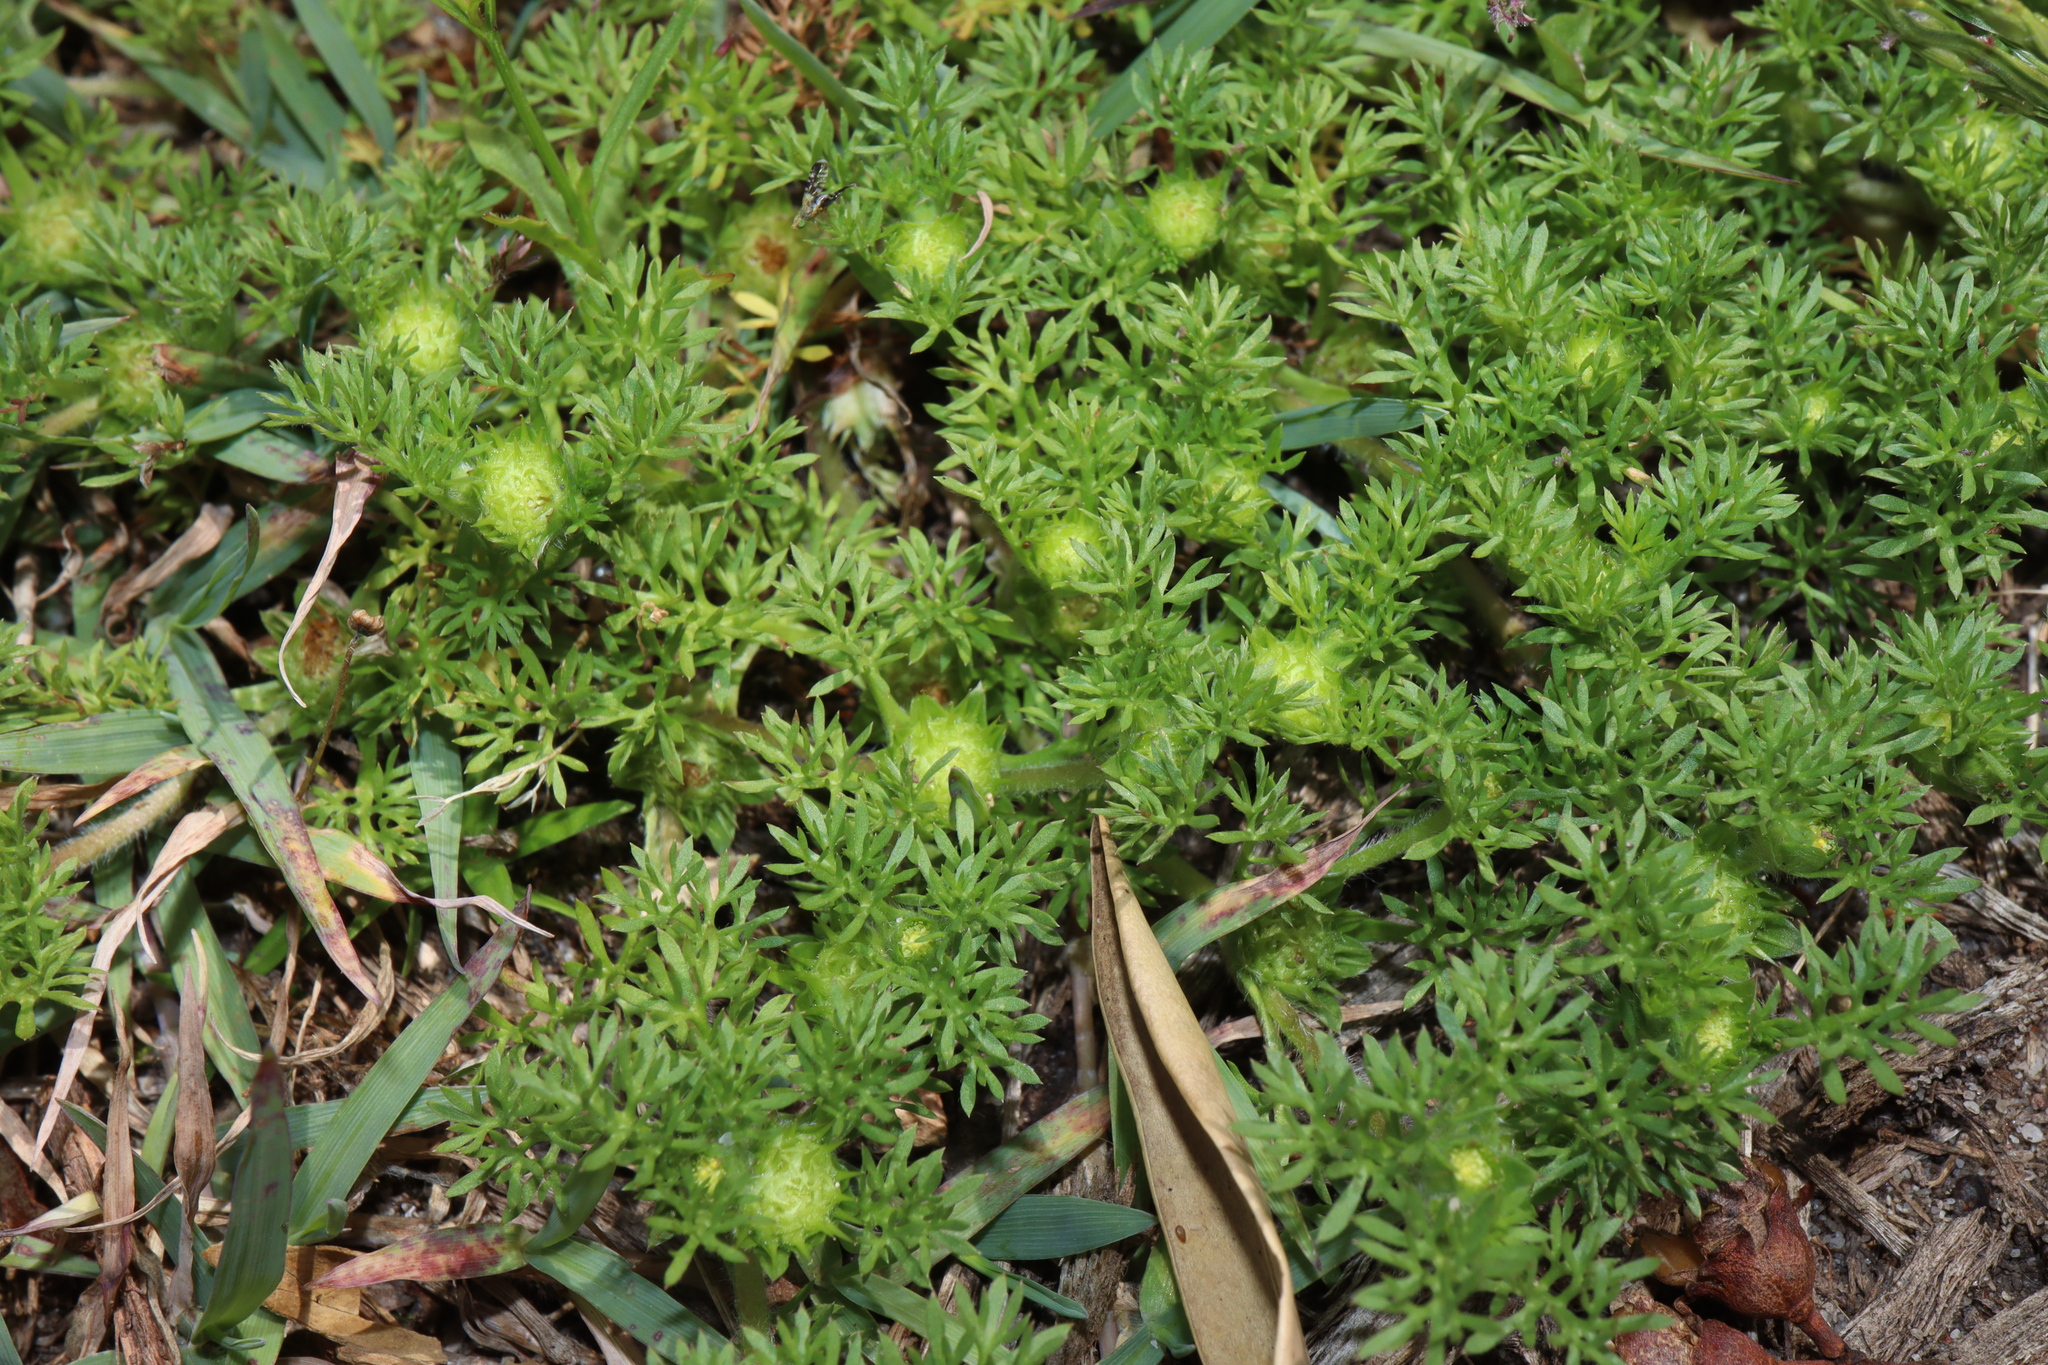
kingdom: Plantae
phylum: Tracheophyta
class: Magnoliopsida
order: Asterales
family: Asteraceae
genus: Soliva
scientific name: Soliva sessilis
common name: Field burrweed
